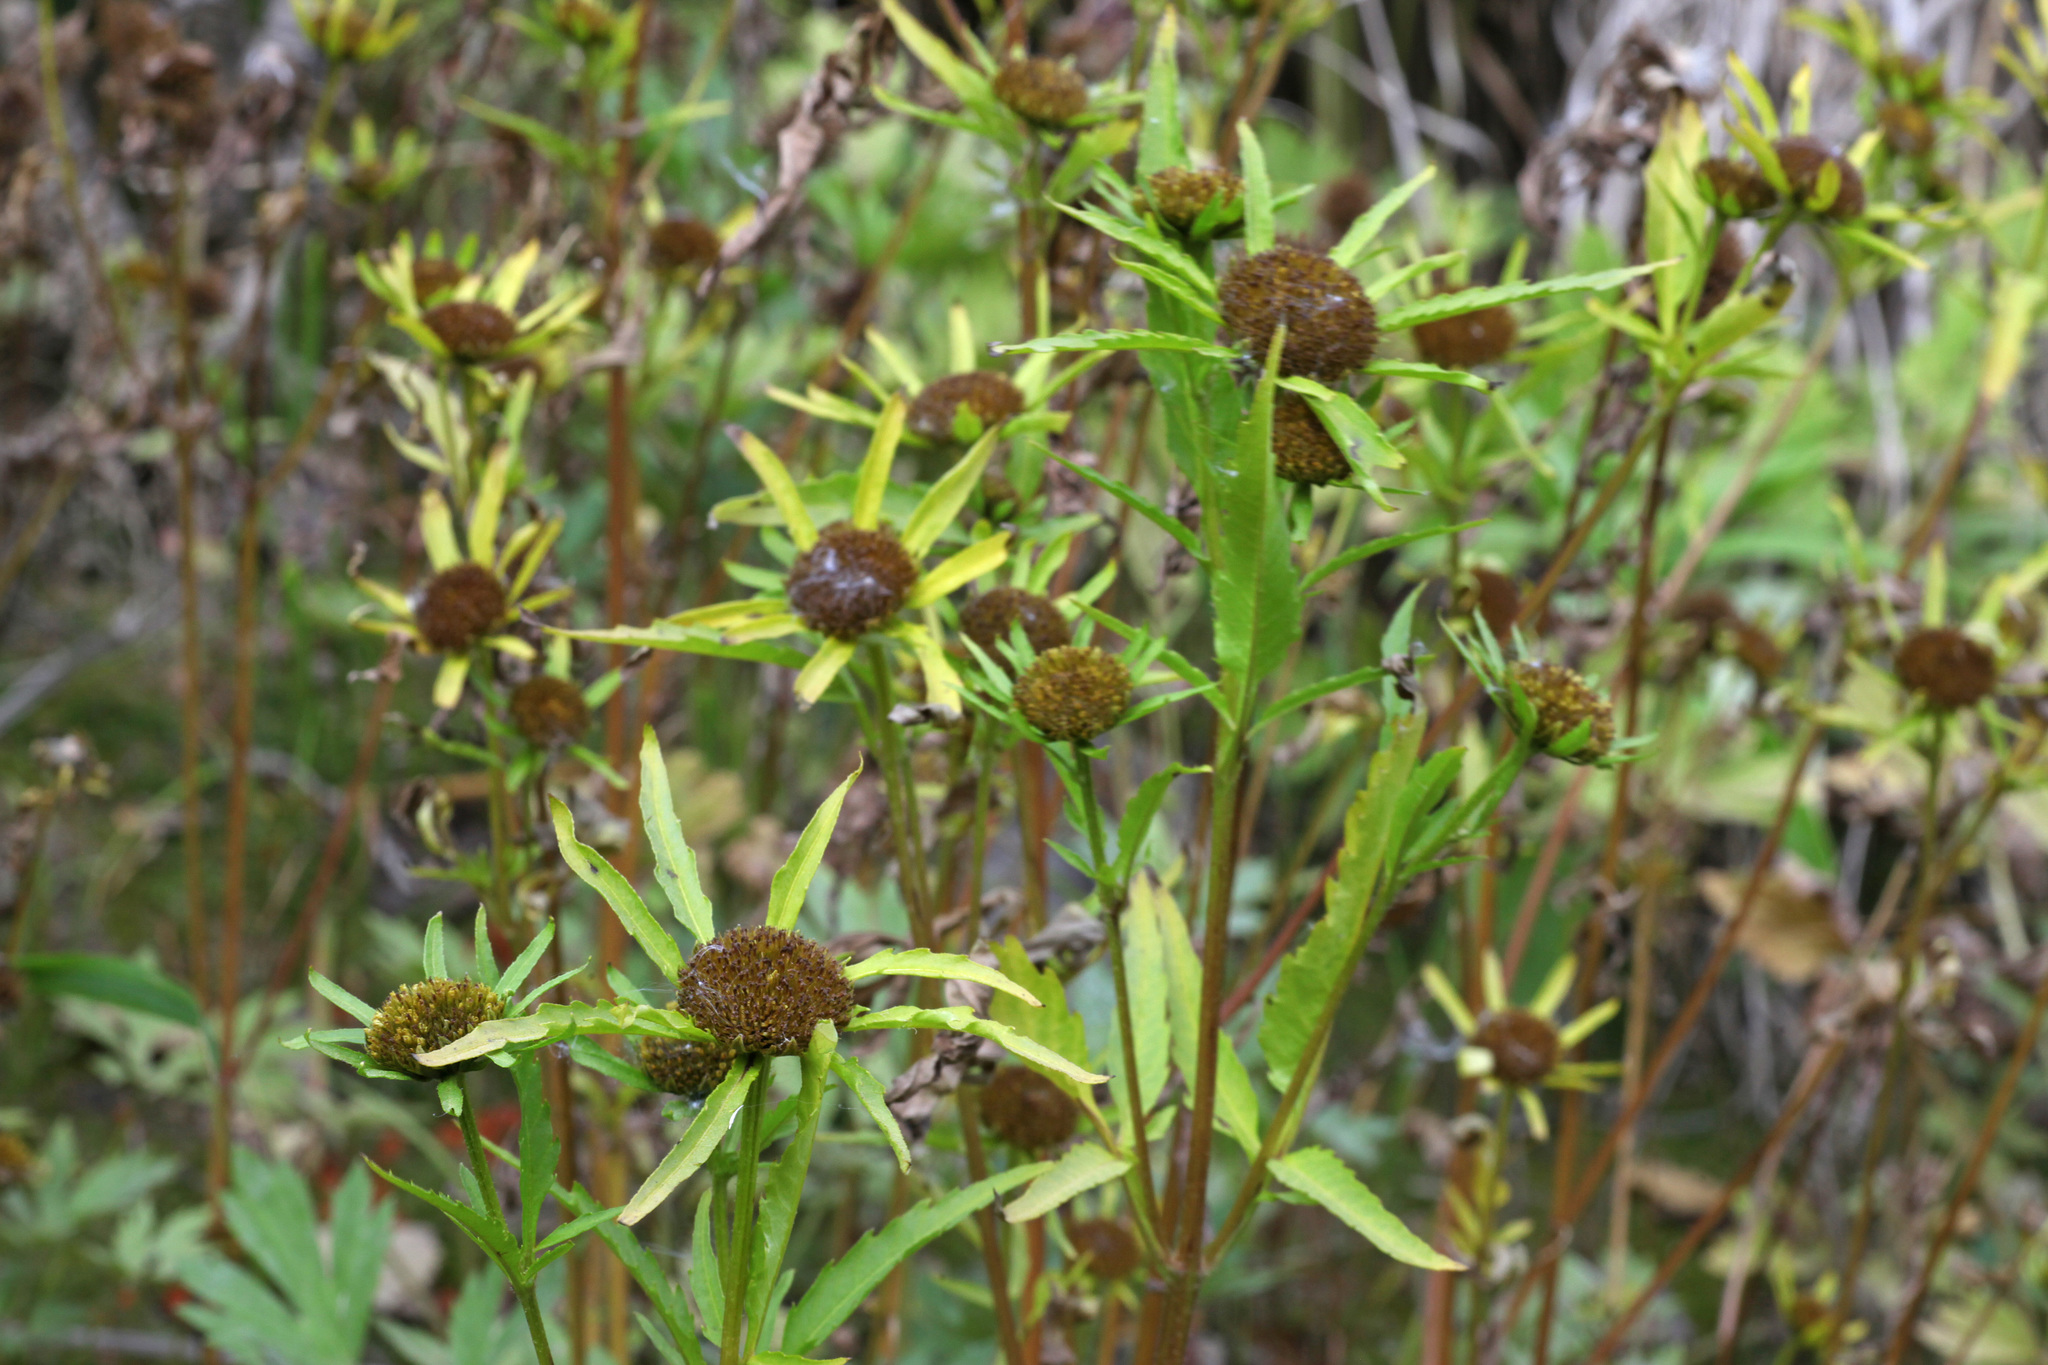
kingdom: Plantae
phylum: Tracheophyta
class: Magnoliopsida
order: Asterales
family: Asteraceae
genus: Bidens
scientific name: Bidens radiata
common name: Radiating bur-marigold
